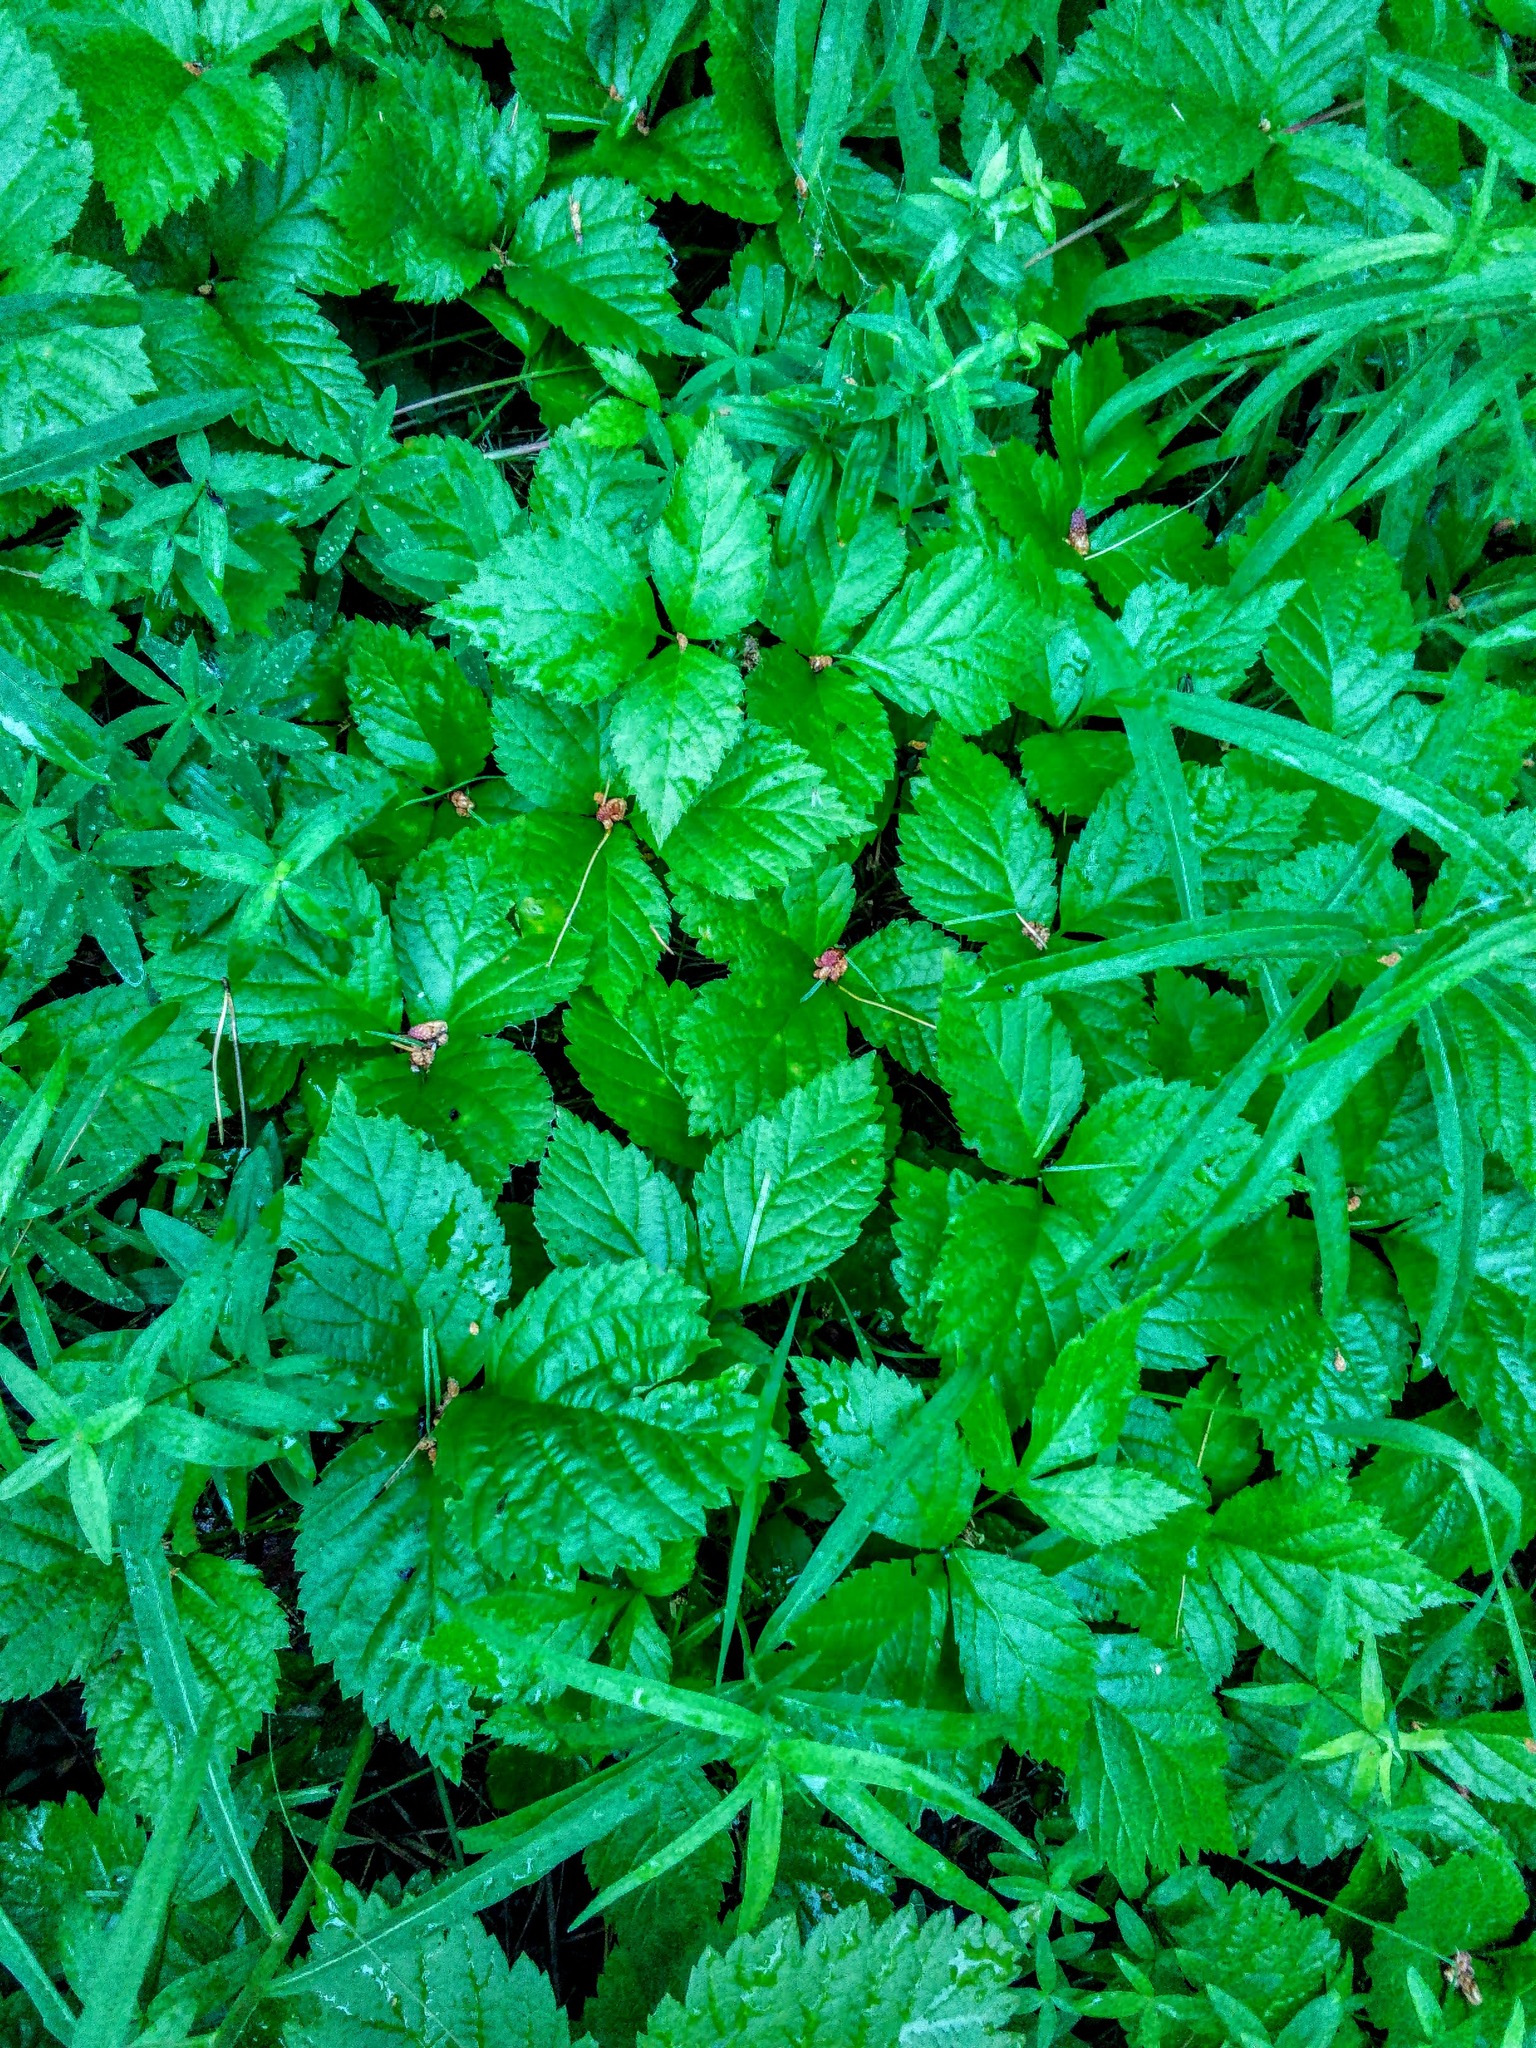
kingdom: Plantae
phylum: Tracheophyta
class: Magnoliopsida
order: Rosales
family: Rosaceae
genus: Rubus
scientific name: Rubus saxatilis
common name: Stone bramble
